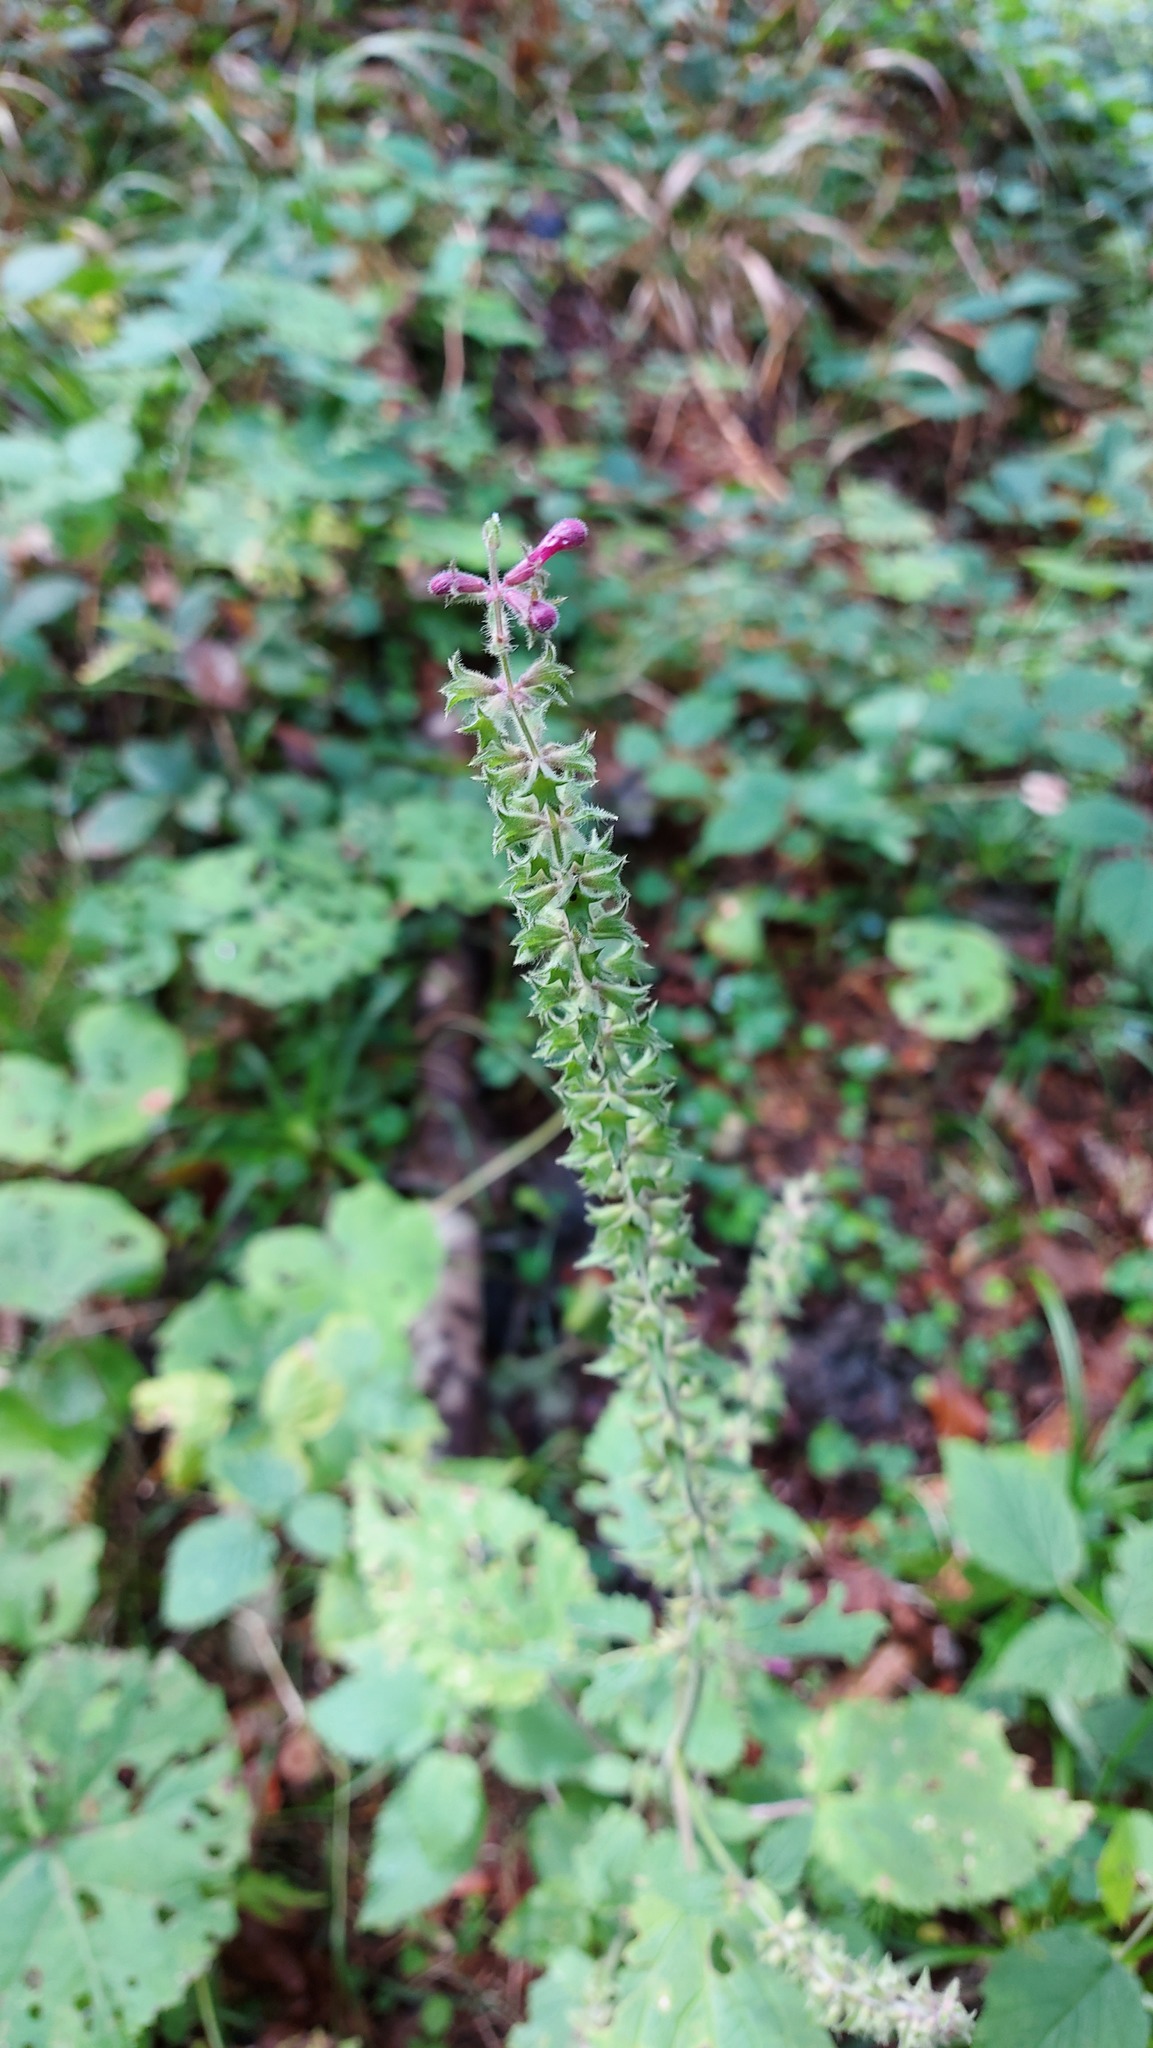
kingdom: Plantae
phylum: Tracheophyta
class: Magnoliopsida
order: Lamiales
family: Lamiaceae
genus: Stachys
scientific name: Stachys sylvatica
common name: Hedge woundwort
